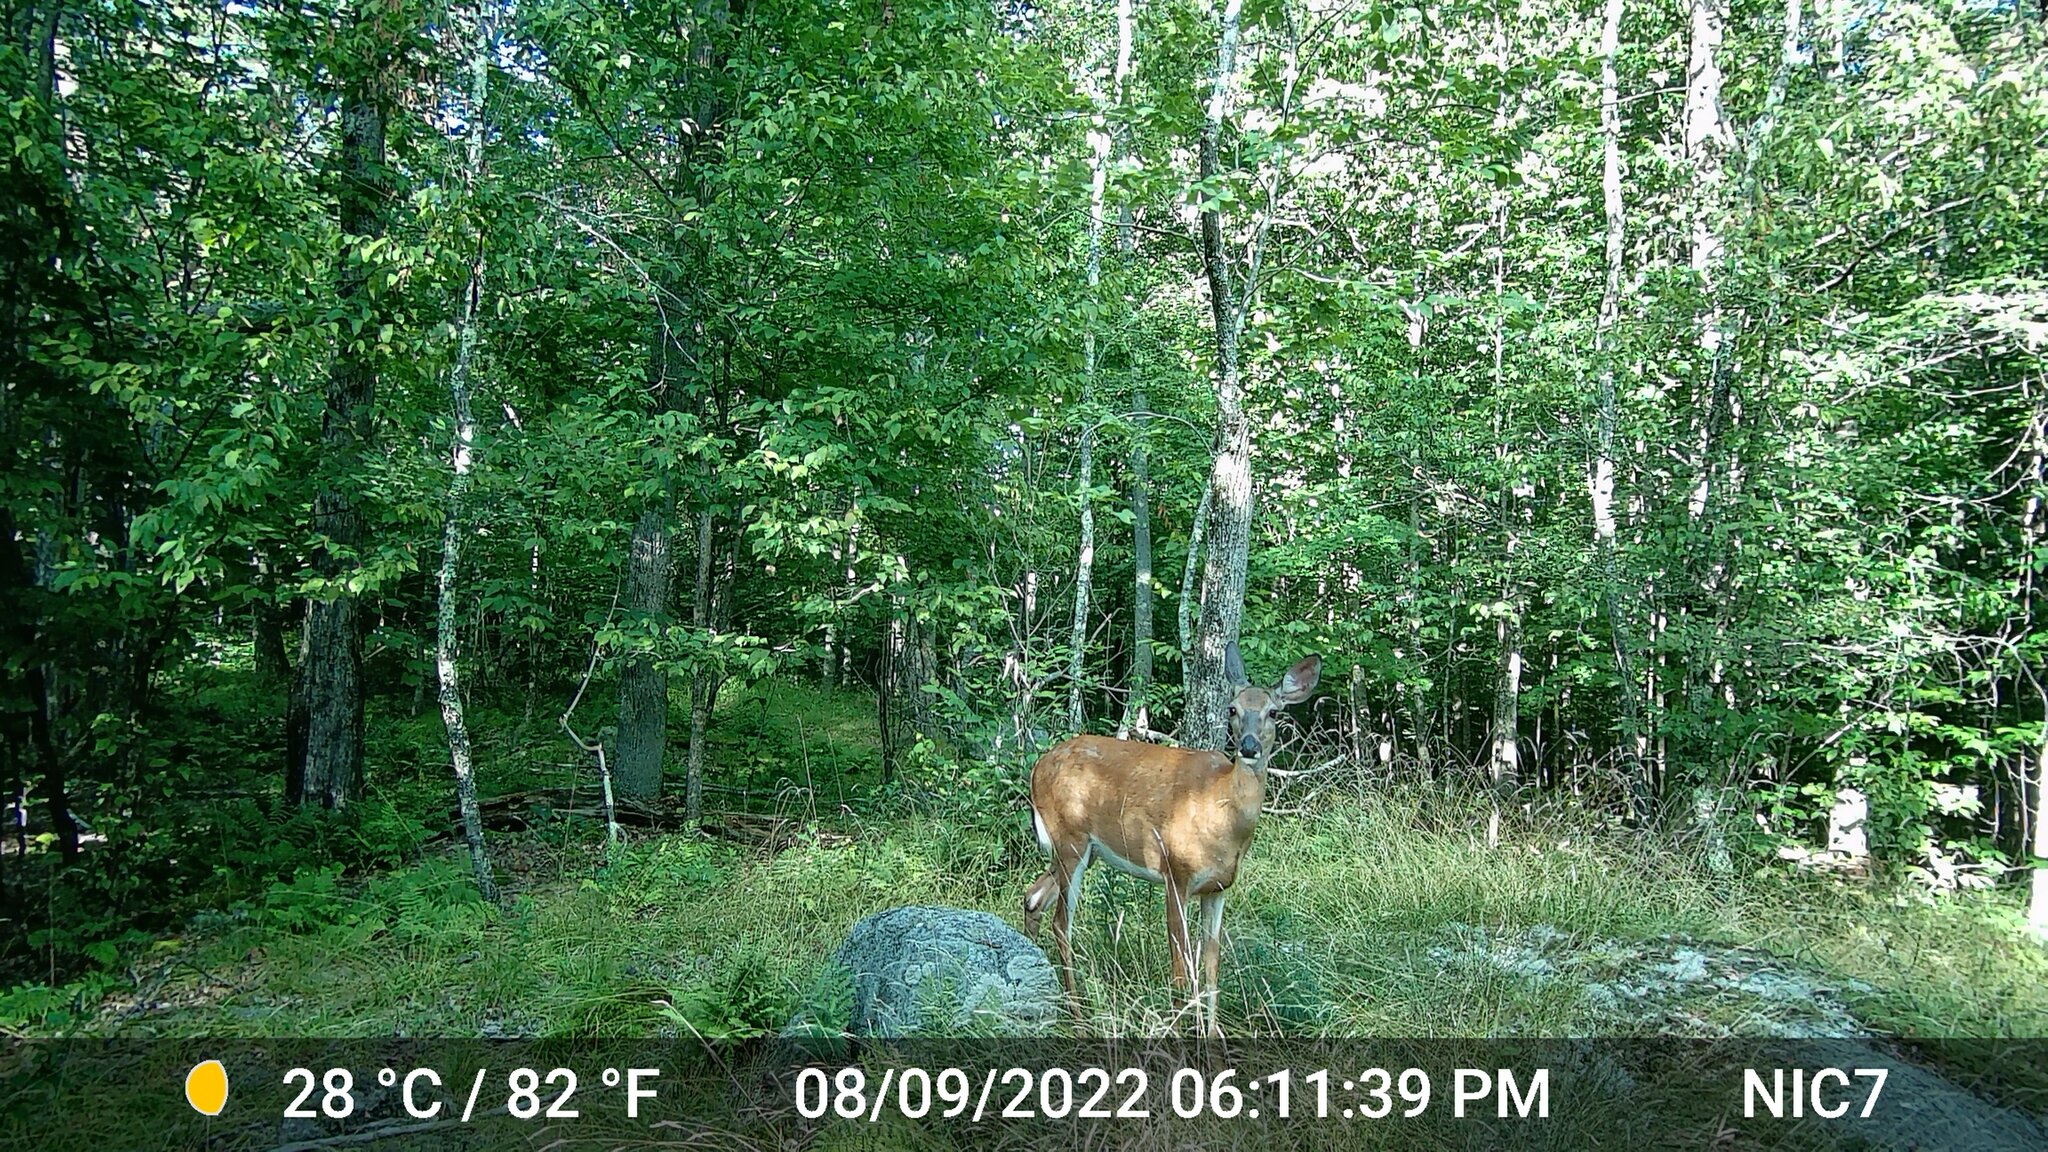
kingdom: Animalia
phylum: Chordata
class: Mammalia
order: Artiodactyla
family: Cervidae
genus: Odocoileus
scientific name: Odocoileus virginianus
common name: White-tailed deer
